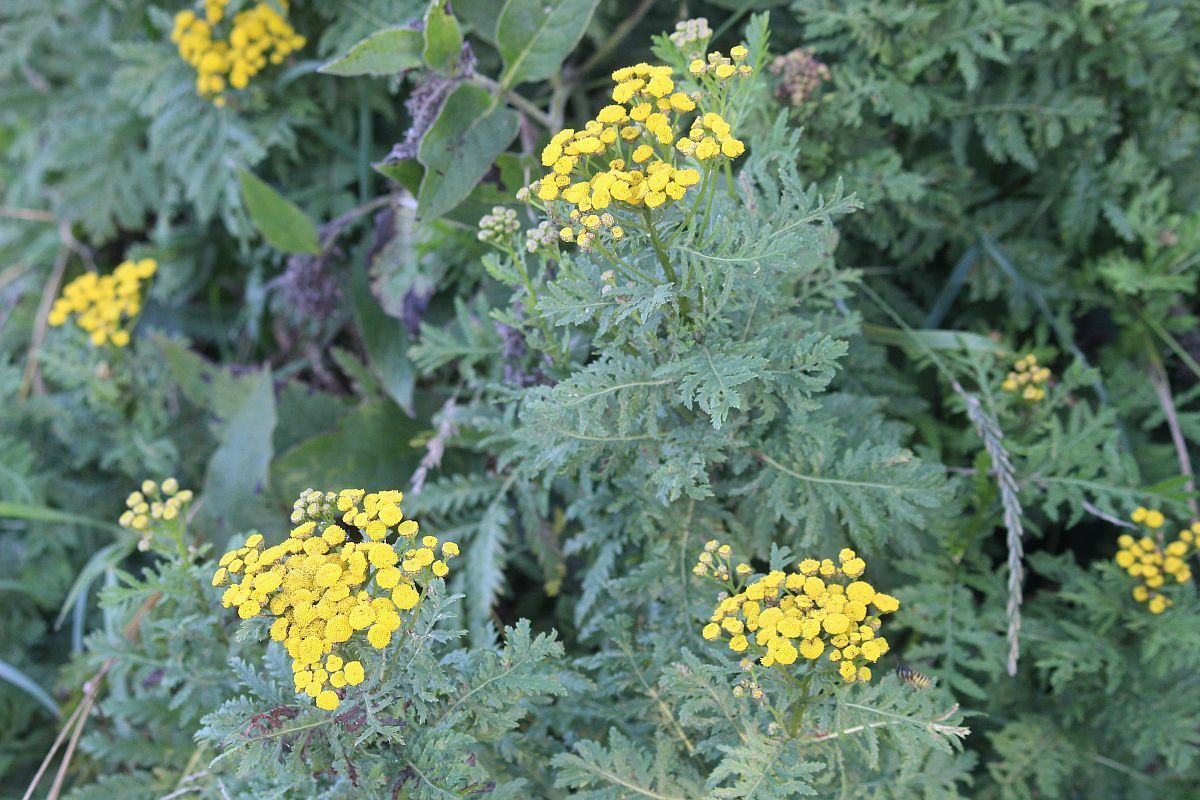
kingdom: Plantae
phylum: Tracheophyta
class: Magnoliopsida
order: Asterales
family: Asteraceae
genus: Tanacetum
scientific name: Tanacetum vulgare
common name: Common tansy
